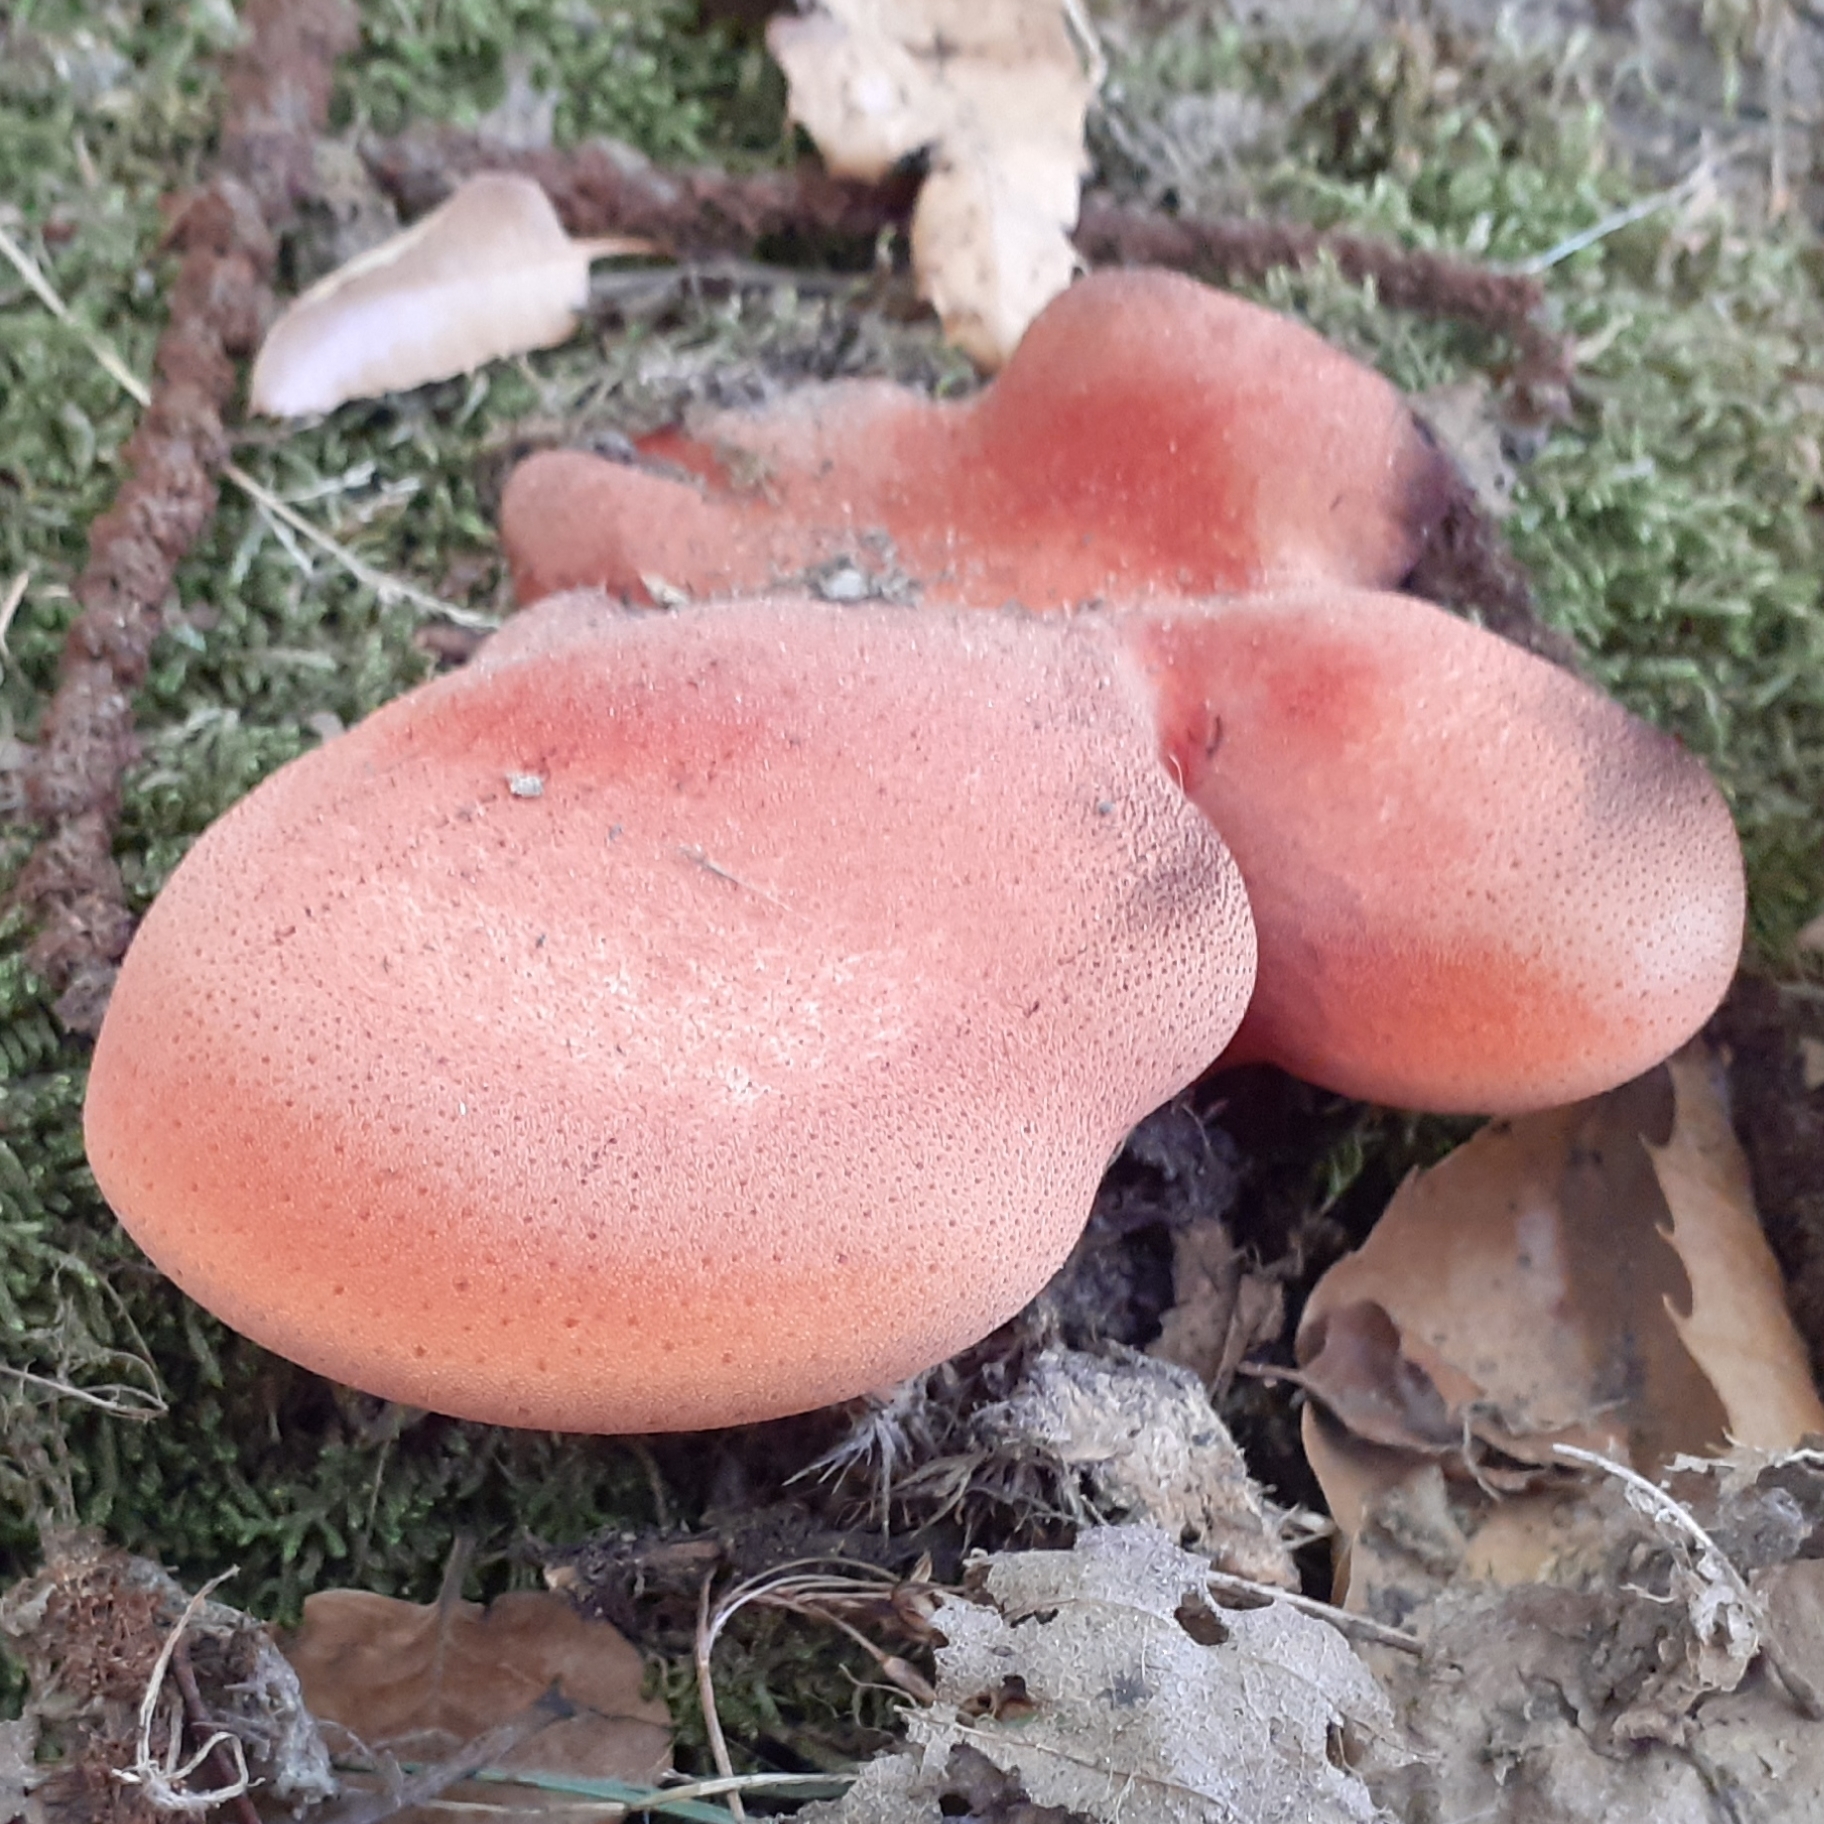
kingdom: Fungi
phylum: Basidiomycota
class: Agaricomycetes
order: Agaricales
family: Fistulinaceae
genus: Fistulina
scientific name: Fistulina hepatica
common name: Beef-steak fungus
